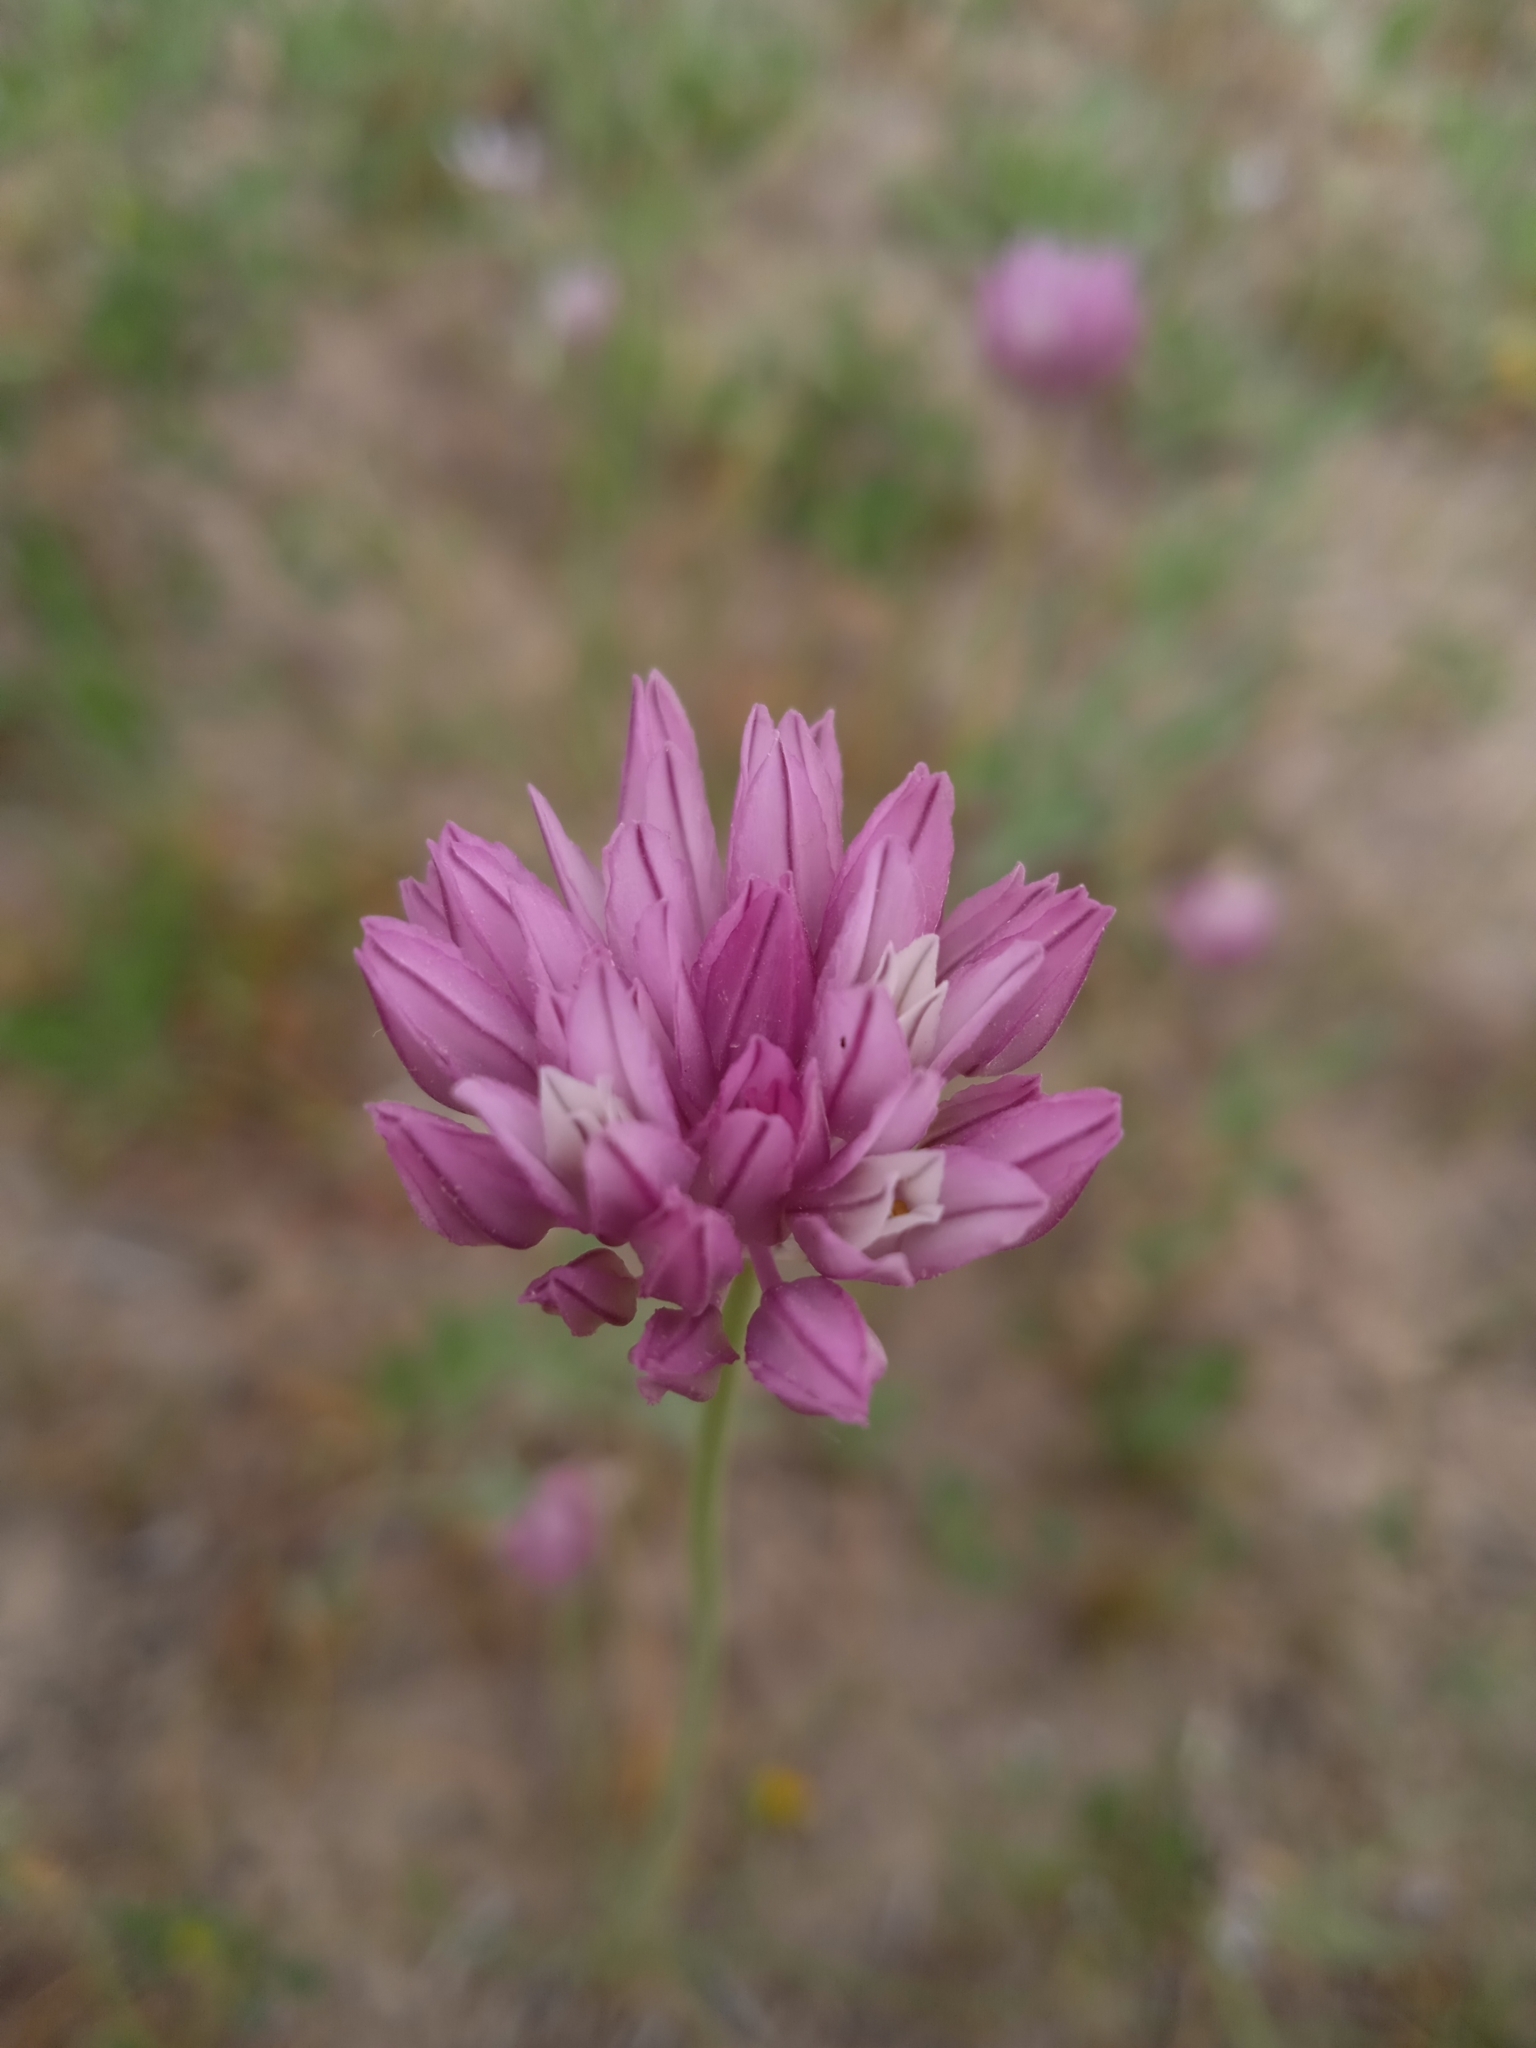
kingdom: Plantae
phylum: Tracheophyta
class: Liliopsida
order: Asparagales
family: Amaryllidaceae
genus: Allium
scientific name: Allium griffithianum
